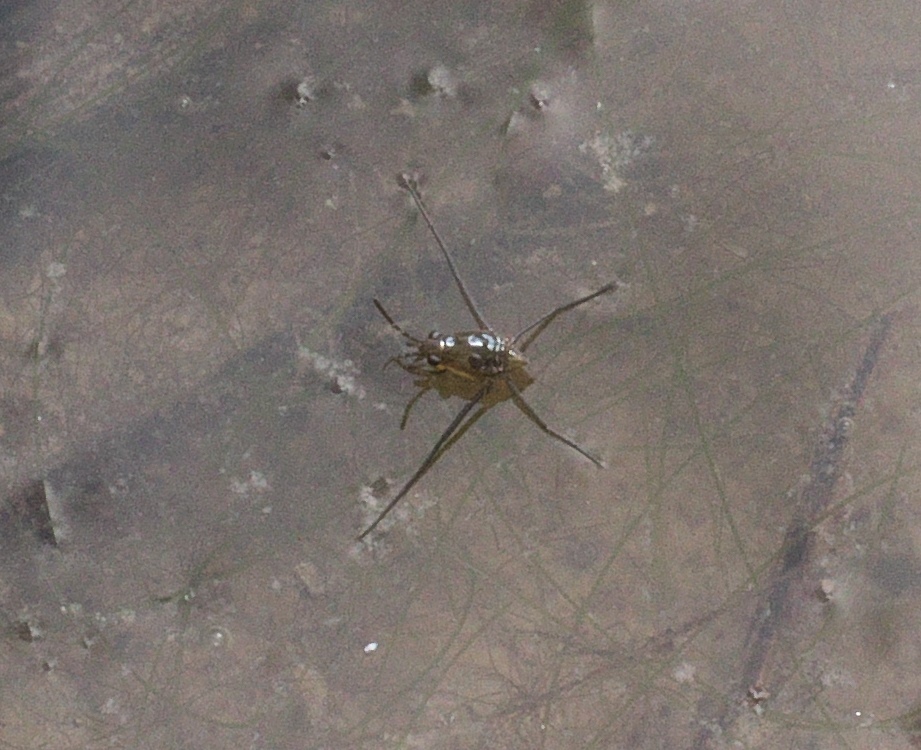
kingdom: Animalia
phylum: Arthropoda
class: Insecta
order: Hemiptera
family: Gerridae
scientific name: Gerridae
